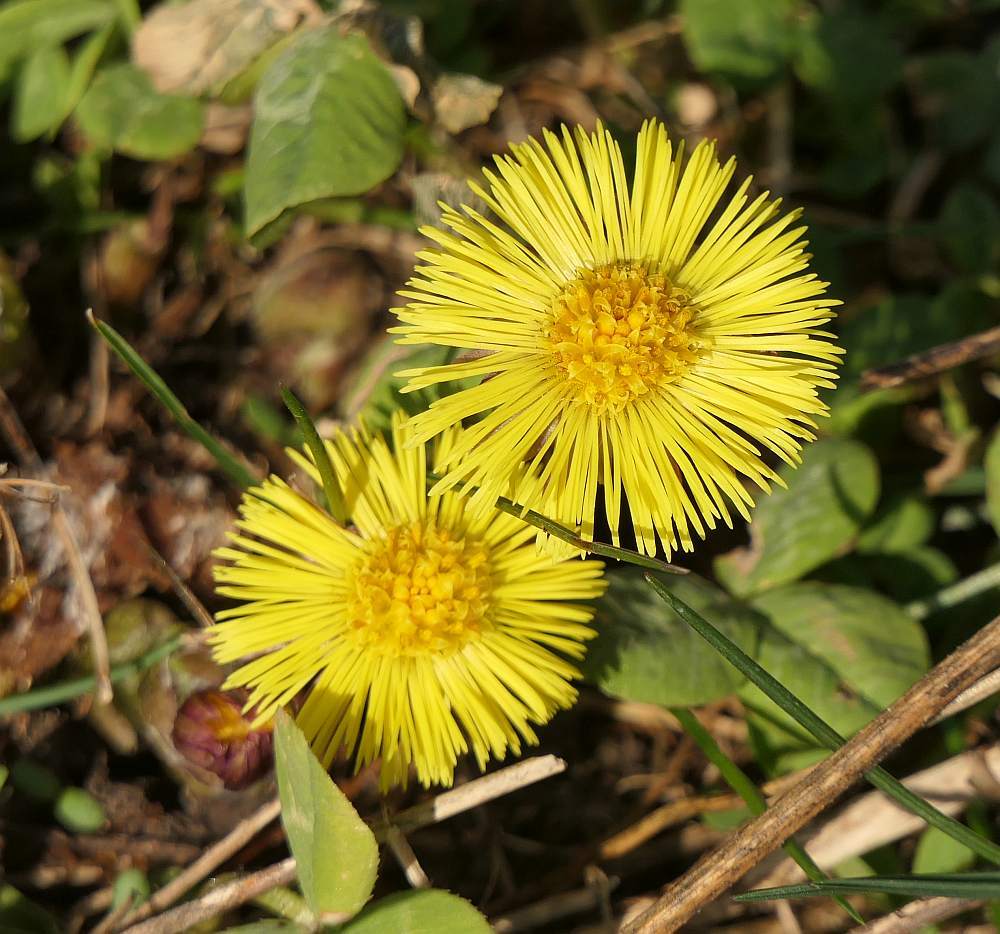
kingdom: Plantae
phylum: Tracheophyta
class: Magnoliopsida
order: Asterales
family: Asteraceae
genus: Tussilago
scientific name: Tussilago farfara
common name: Coltsfoot
